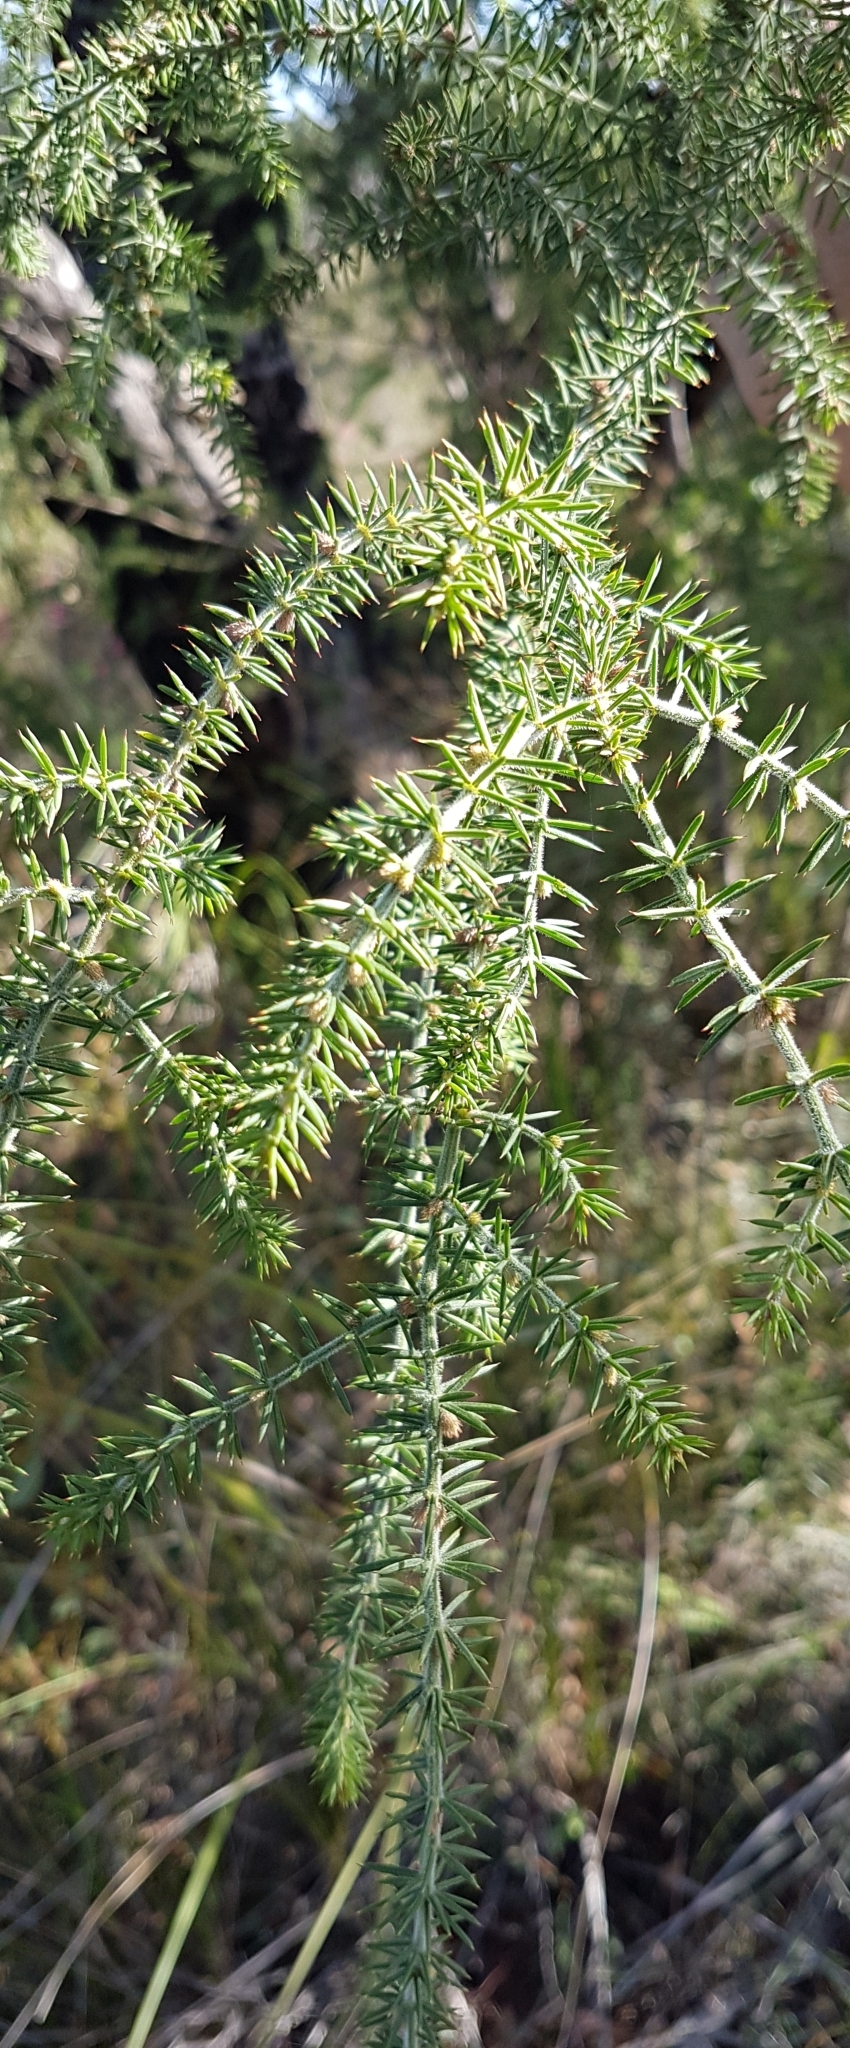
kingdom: Plantae
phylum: Tracheophyta
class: Magnoliopsida
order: Fabales
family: Fabaceae
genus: Acacia
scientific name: Acacia verticillata
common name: Prickly moses
